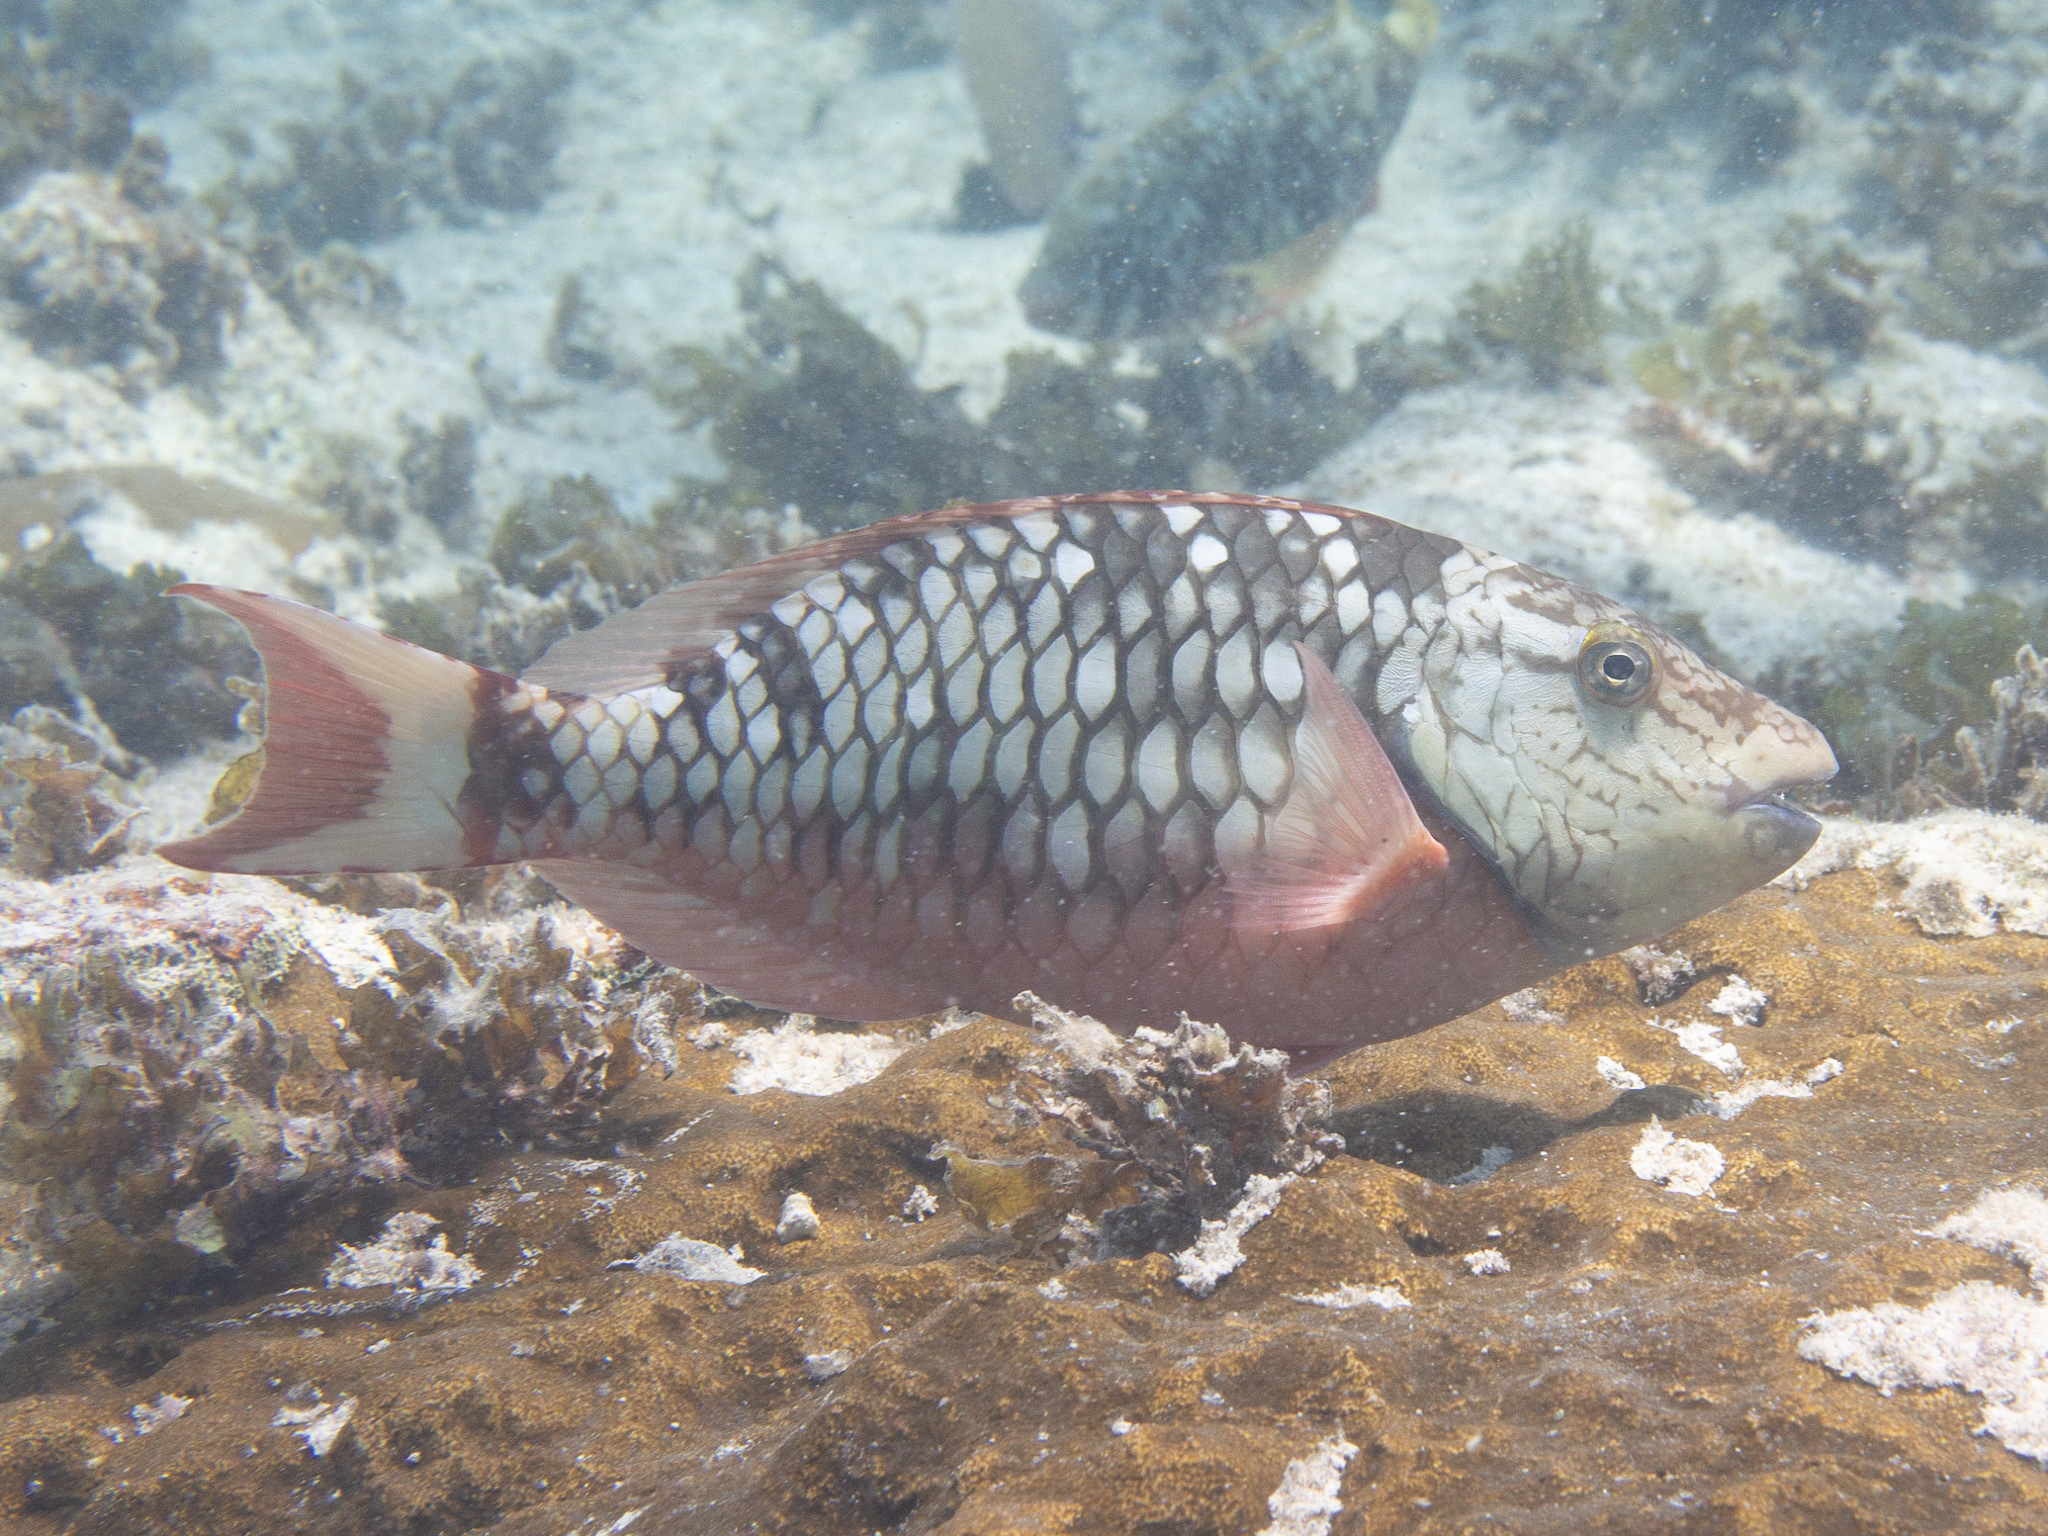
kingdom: Animalia
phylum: Chordata
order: Perciformes
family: Scaridae
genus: Sparisoma
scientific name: Sparisoma viride
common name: Stoplight parrotfish
